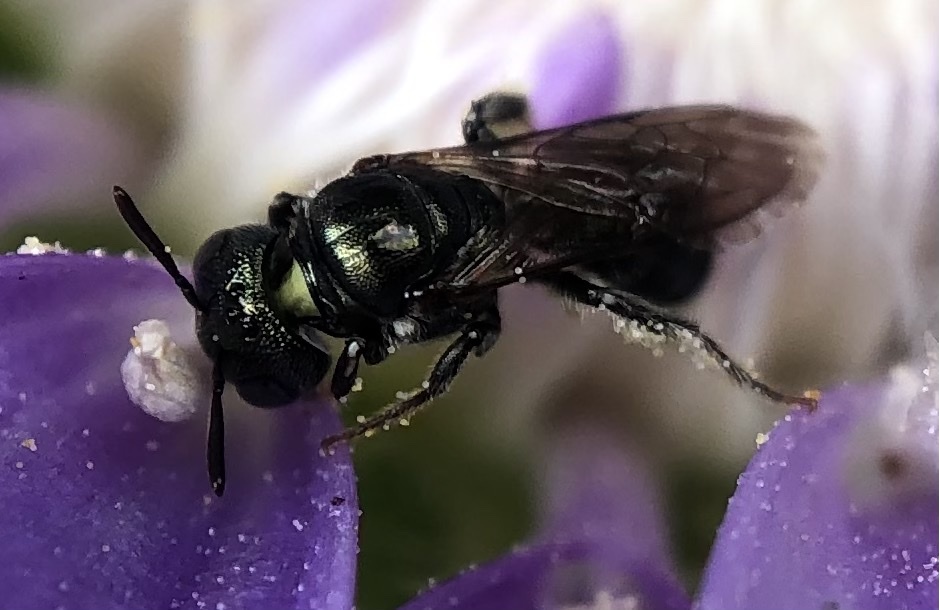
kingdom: Animalia
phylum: Arthropoda
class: Insecta
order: Hymenoptera
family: Apidae
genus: Ceratina
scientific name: Ceratina strenua
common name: Nimble carpenter bee
